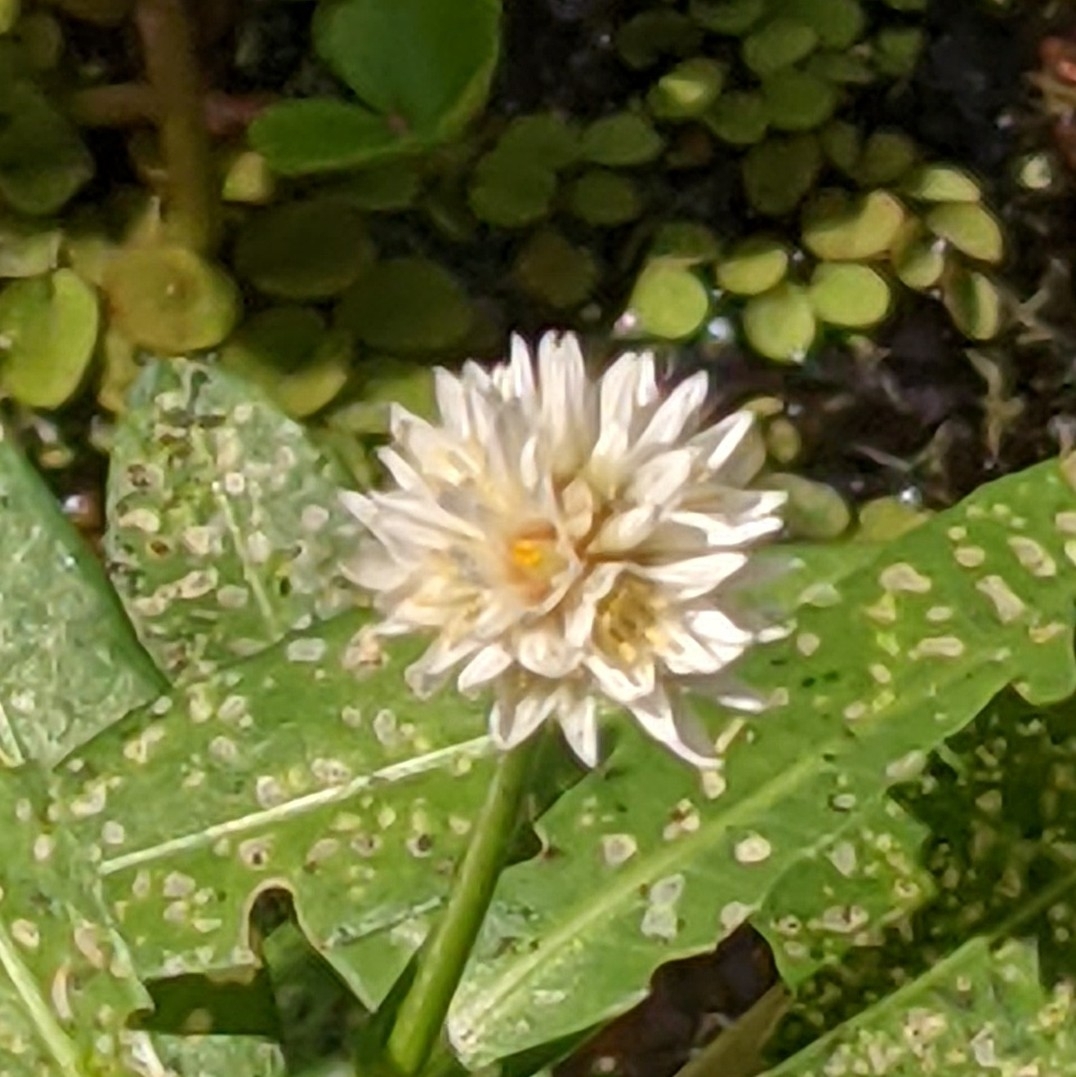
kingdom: Plantae
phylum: Tracheophyta
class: Magnoliopsida
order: Caryophyllales
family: Amaranthaceae
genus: Alternanthera
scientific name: Alternanthera philoxeroides
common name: Alligatorweed
